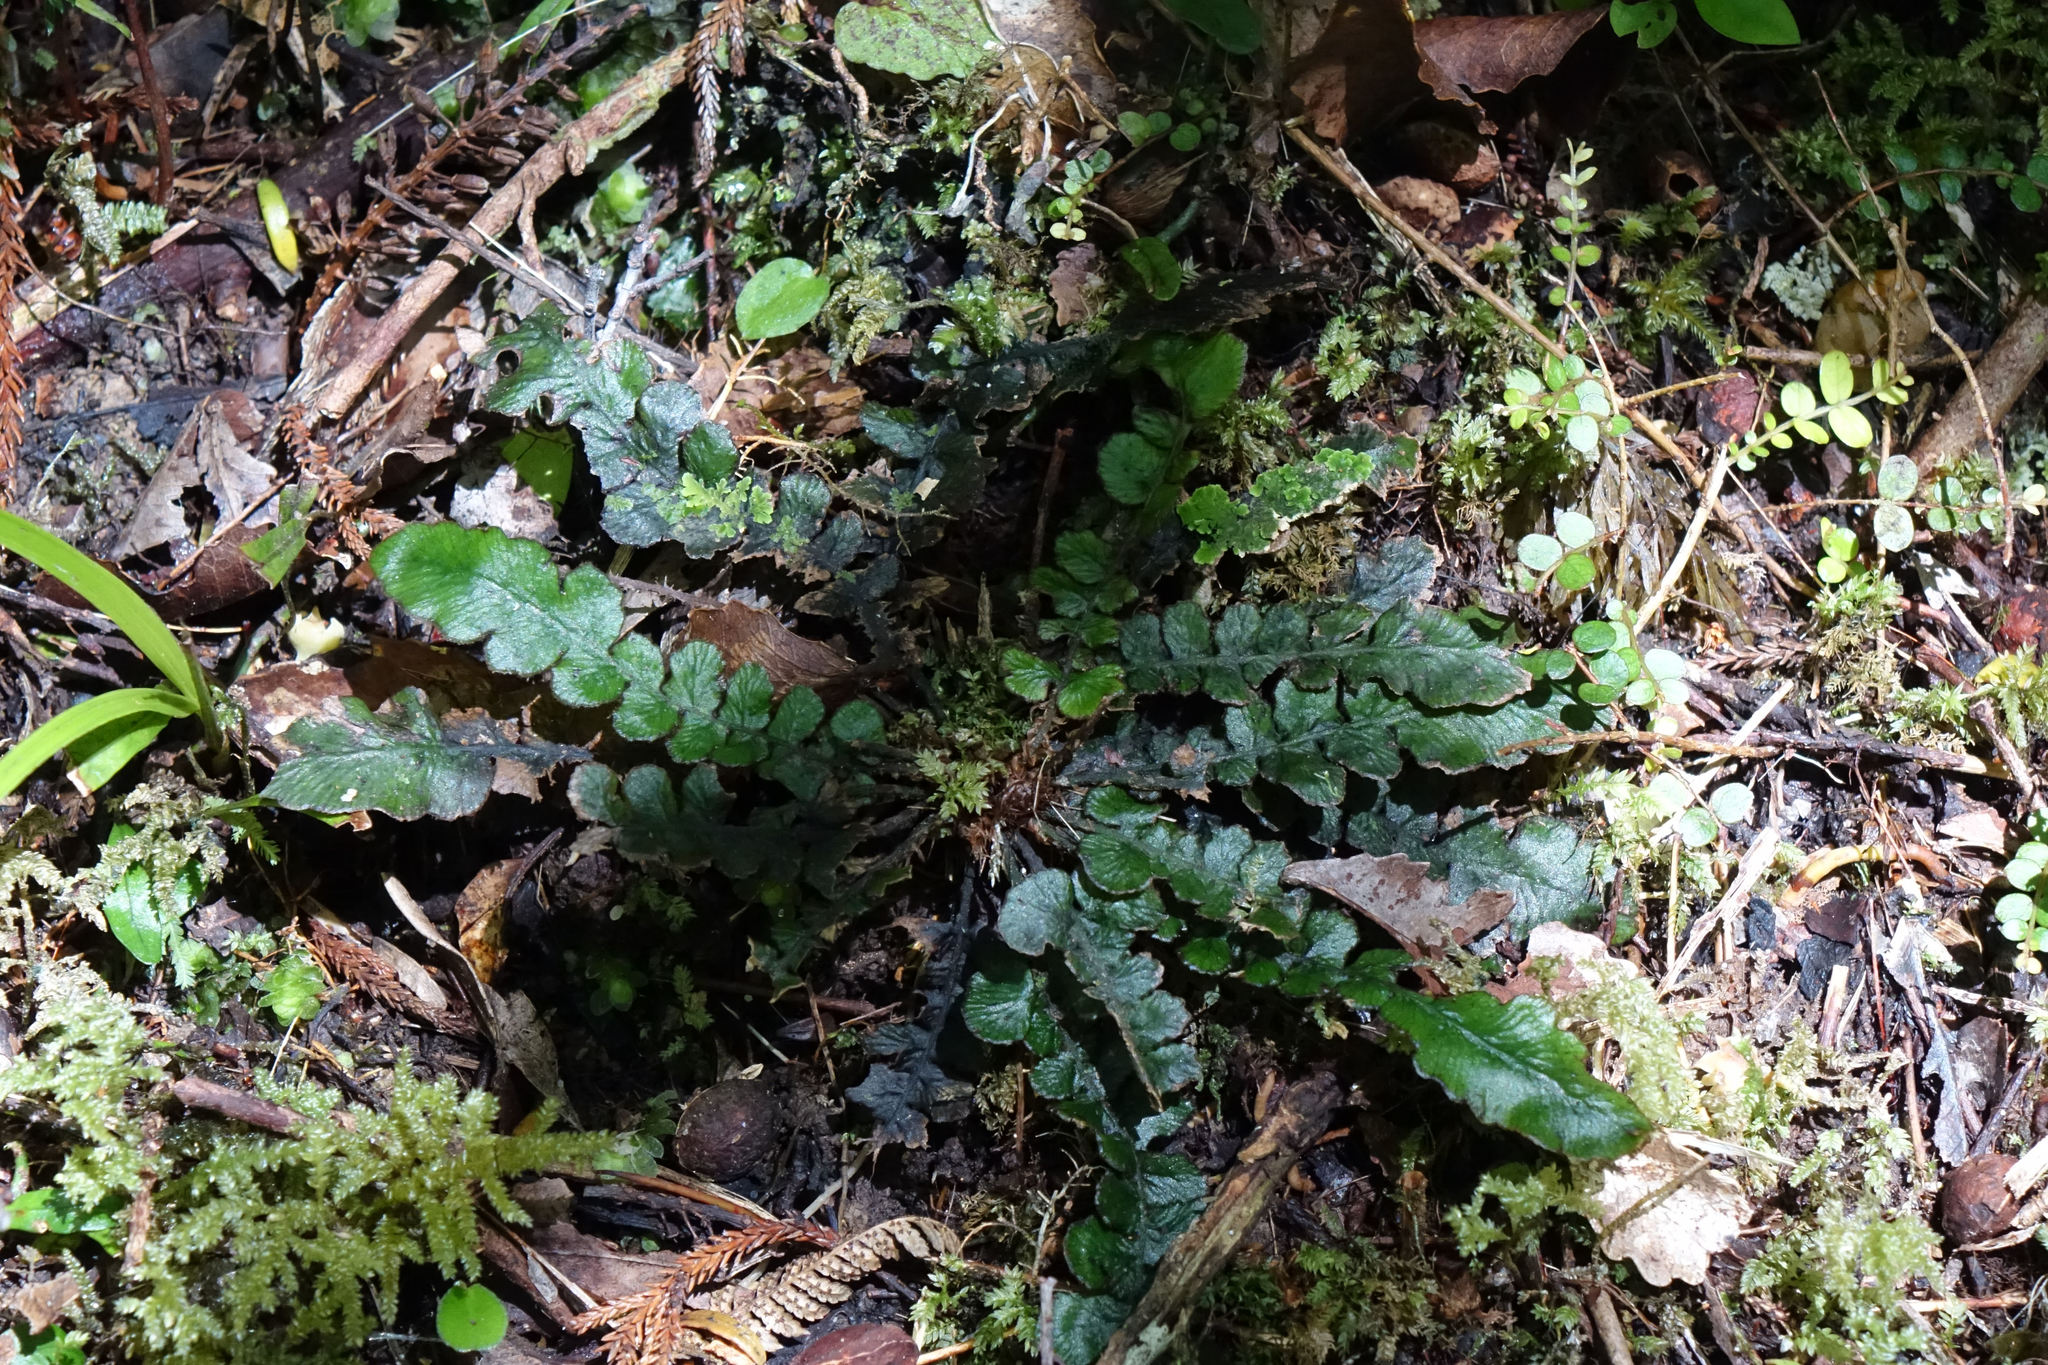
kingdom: Plantae
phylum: Tracheophyta
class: Polypodiopsida
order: Polypodiales
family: Blechnaceae
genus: Cranfillia
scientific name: Cranfillia nigra
